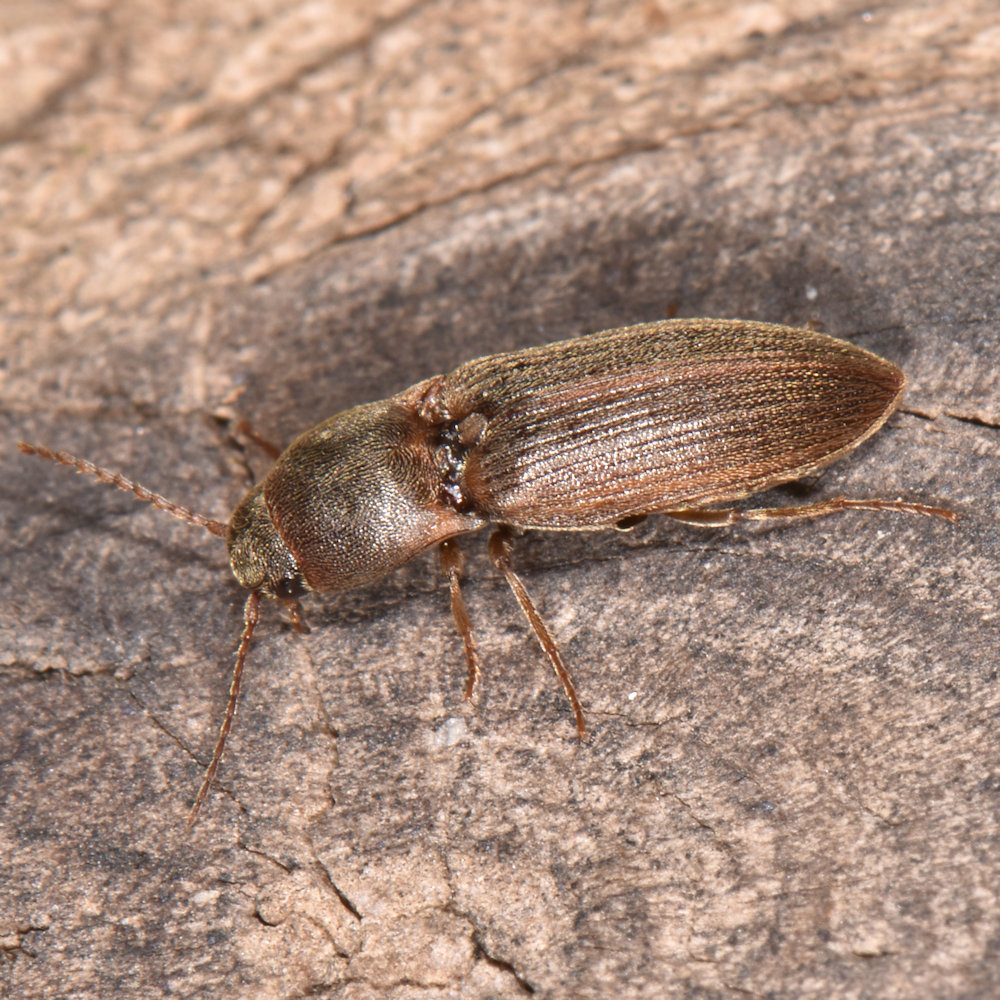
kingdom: Animalia
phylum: Arthropoda
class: Insecta
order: Coleoptera
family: Elateridae
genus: Agriotes
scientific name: Agriotes mancus
